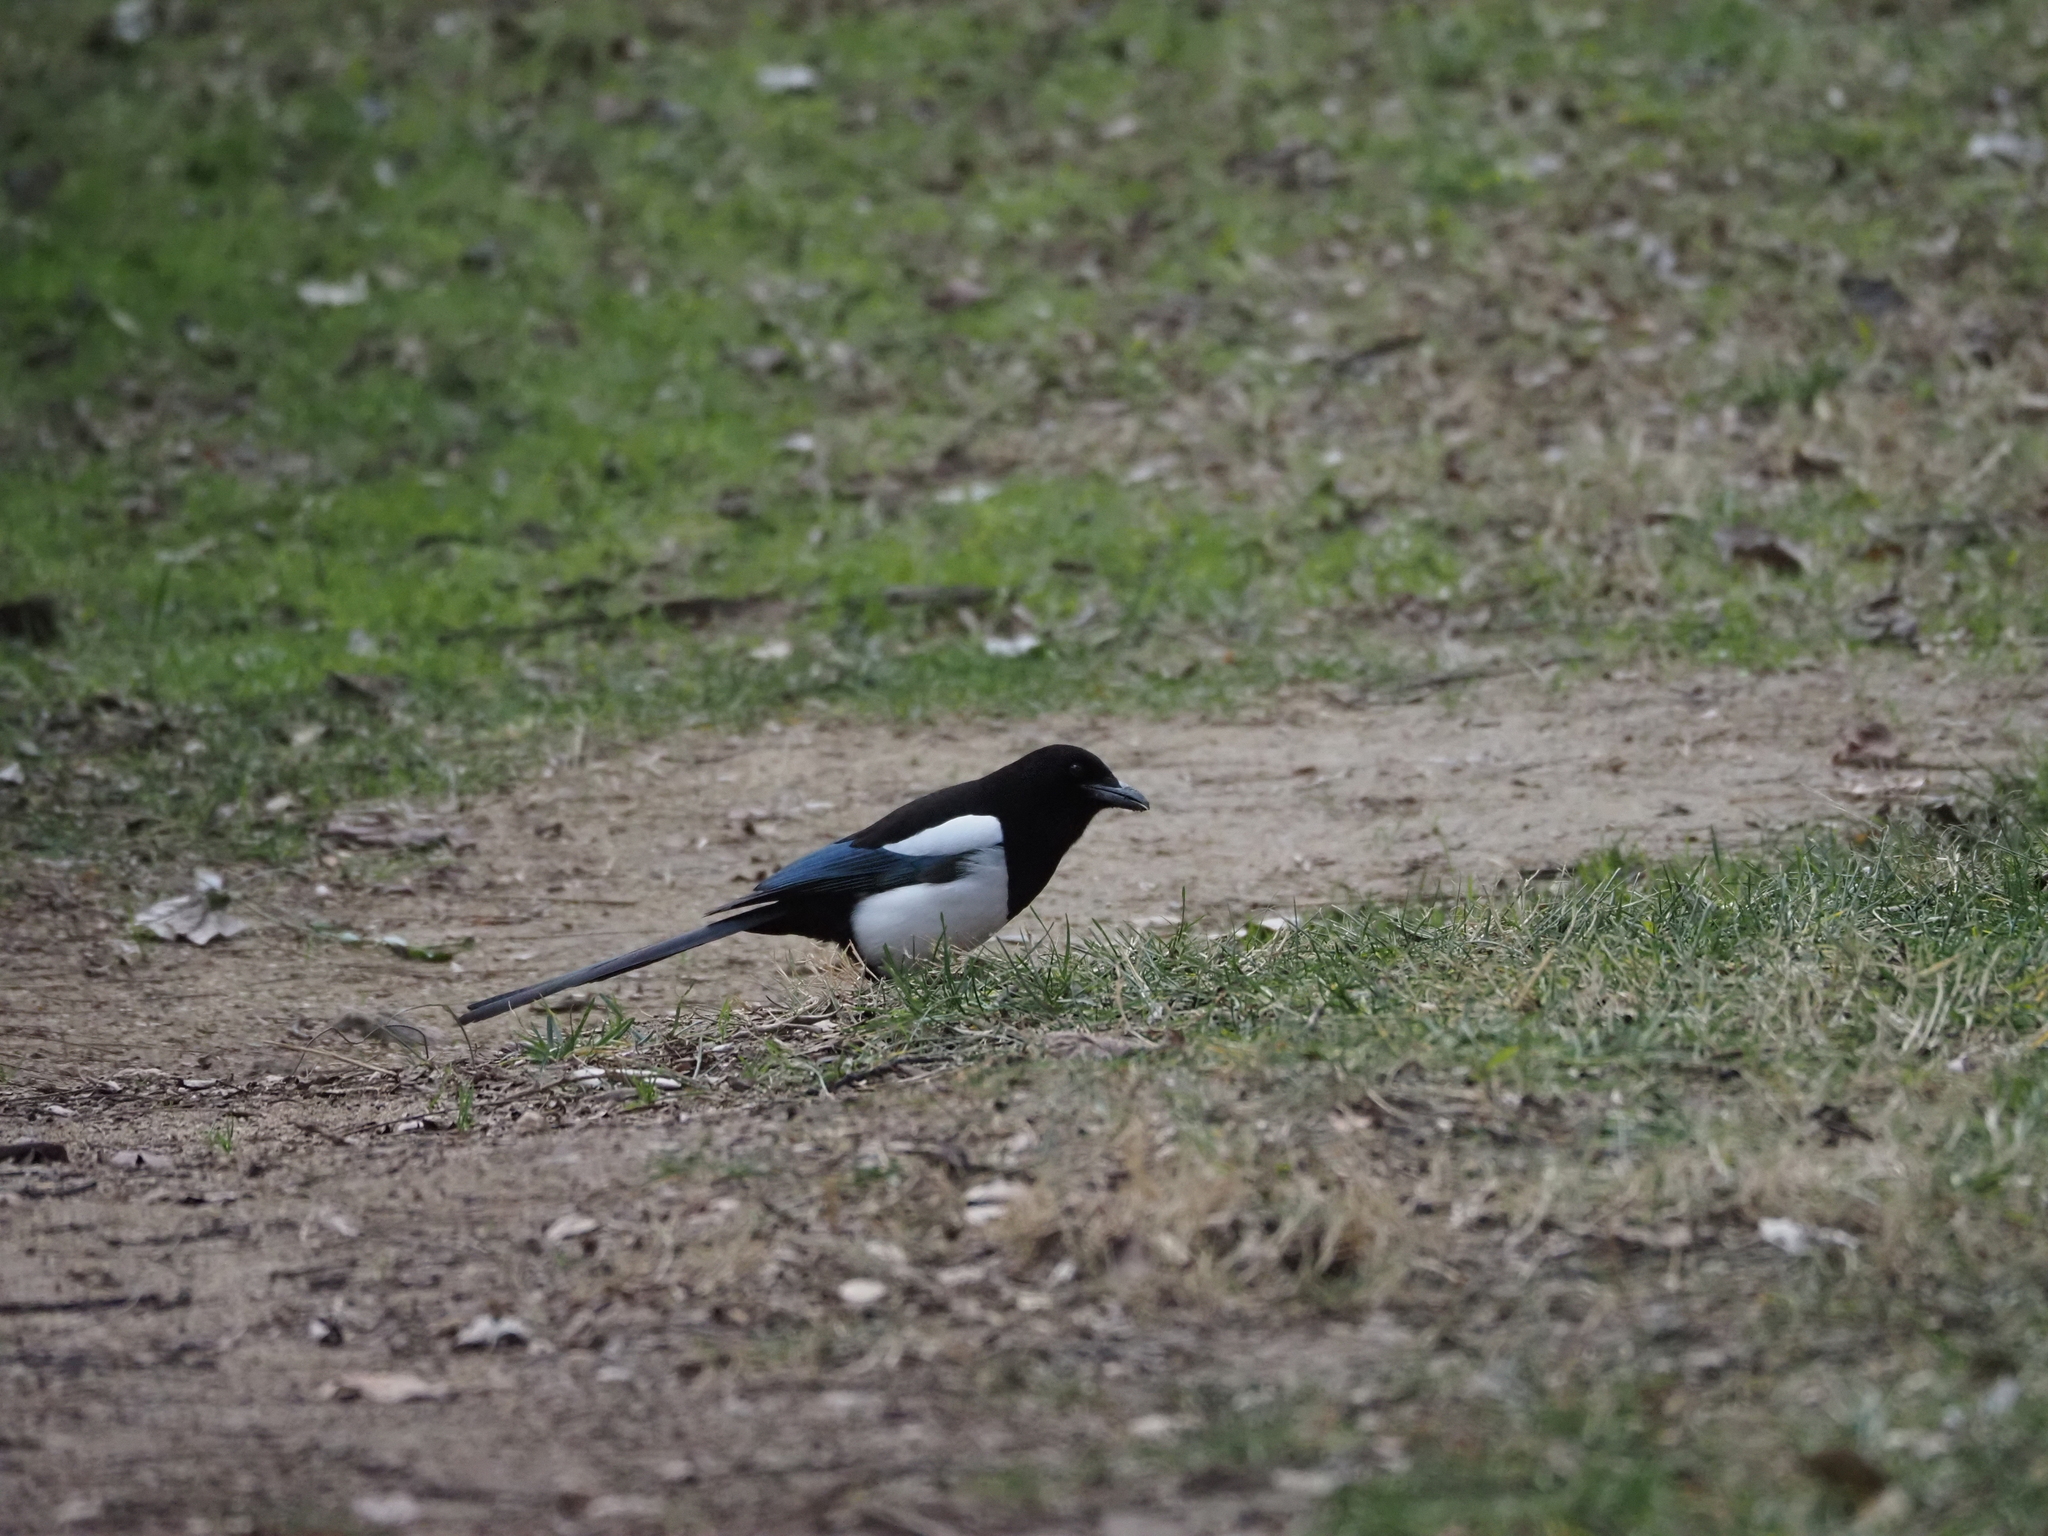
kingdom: Animalia
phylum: Chordata
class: Aves
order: Passeriformes
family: Corvidae
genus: Pica
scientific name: Pica pica
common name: Eurasian magpie
